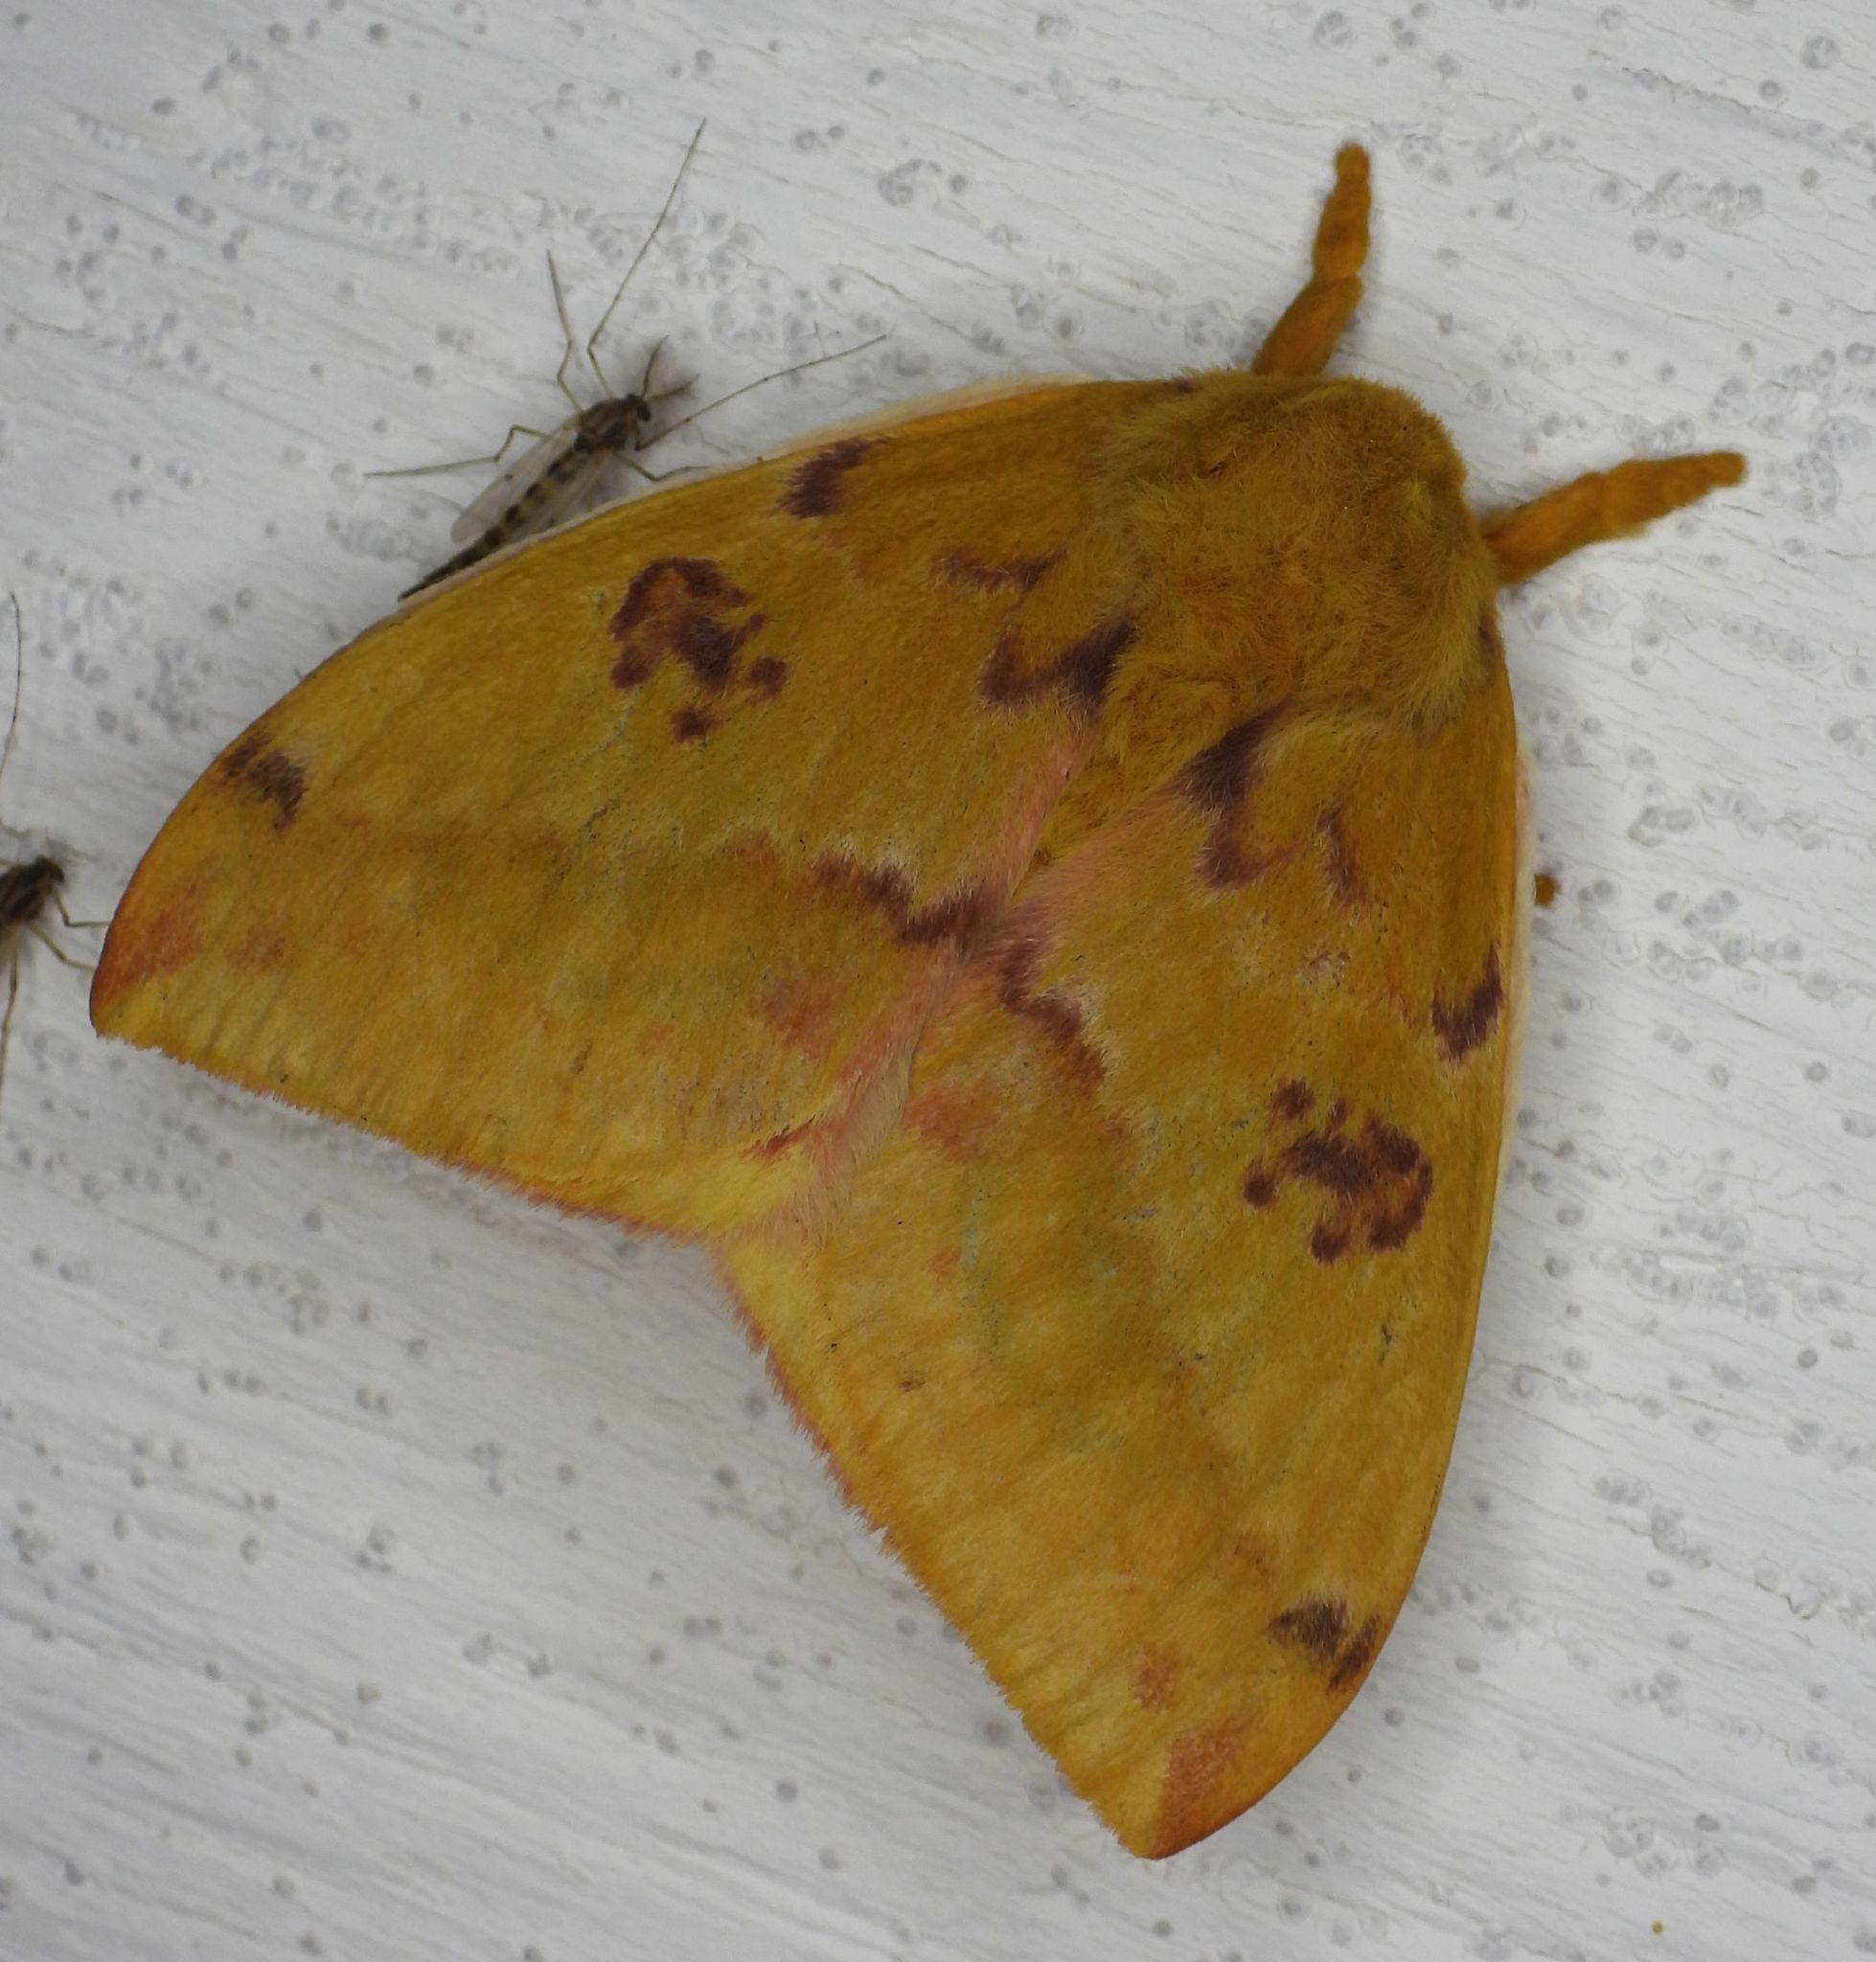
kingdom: Animalia
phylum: Arthropoda
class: Insecta
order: Lepidoptera
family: Saturniidae
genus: Automeris
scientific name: Automeris io
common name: Io moth
